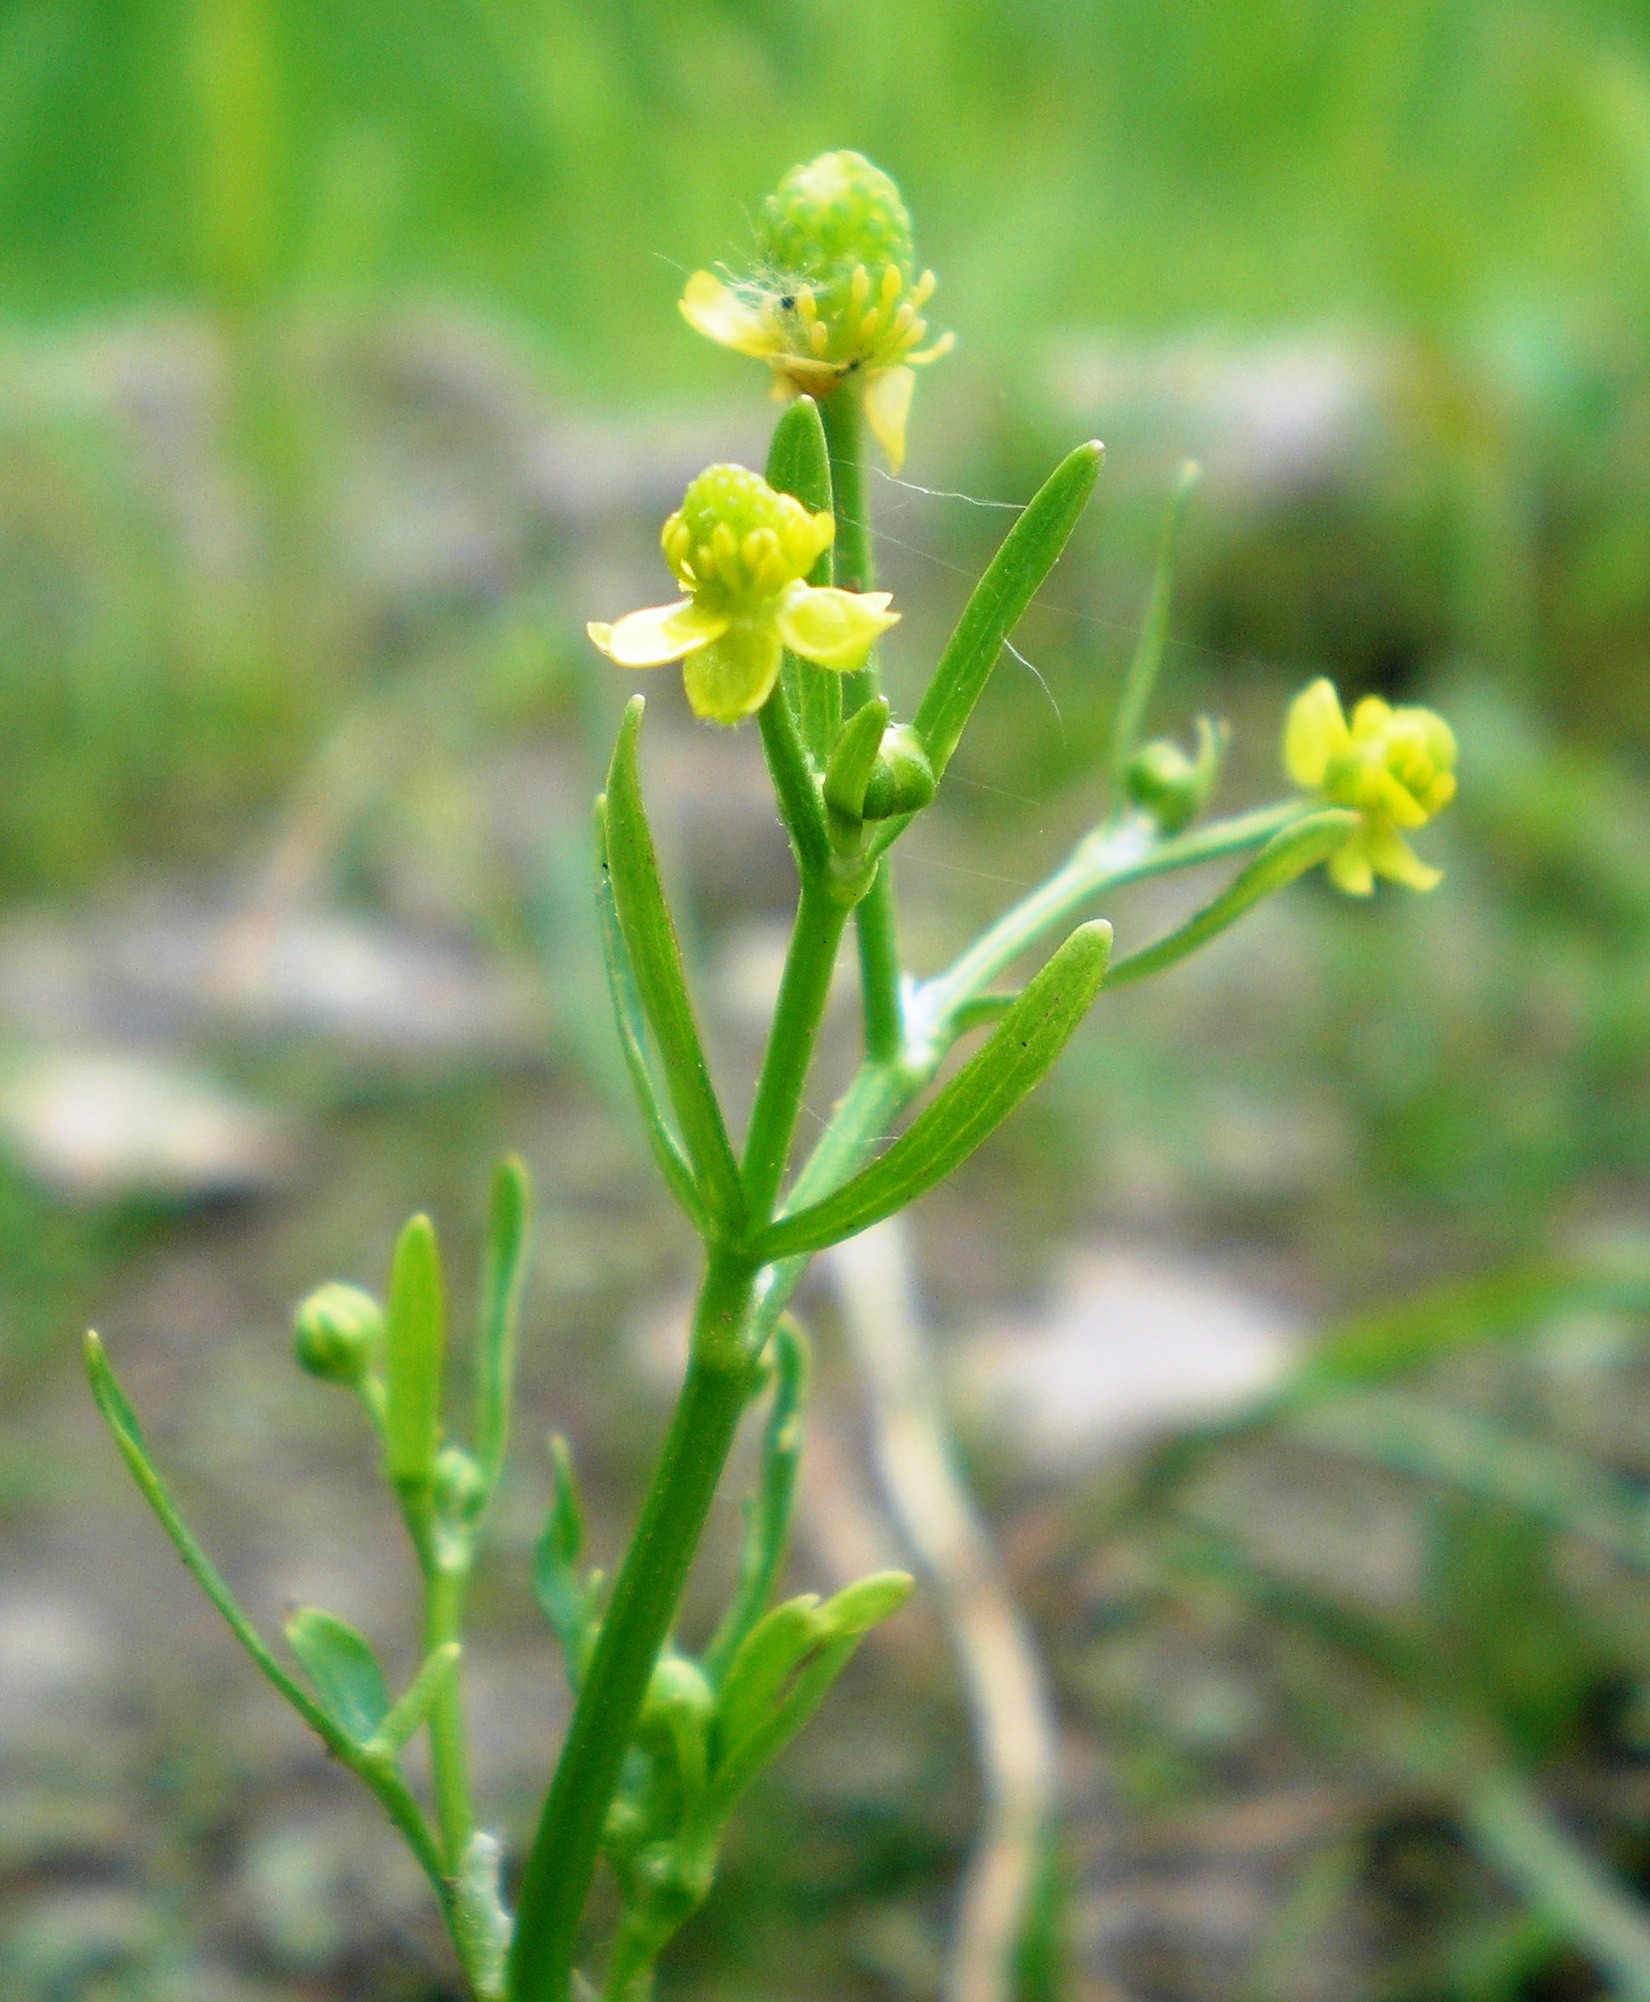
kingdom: Plantae
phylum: Tracheophyta
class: Magnoliopsida
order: Ranunculales
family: Ranunculaceae
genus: Ranunculus
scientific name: Ranunculus sceleratus
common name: Celery-leaved buttercup
